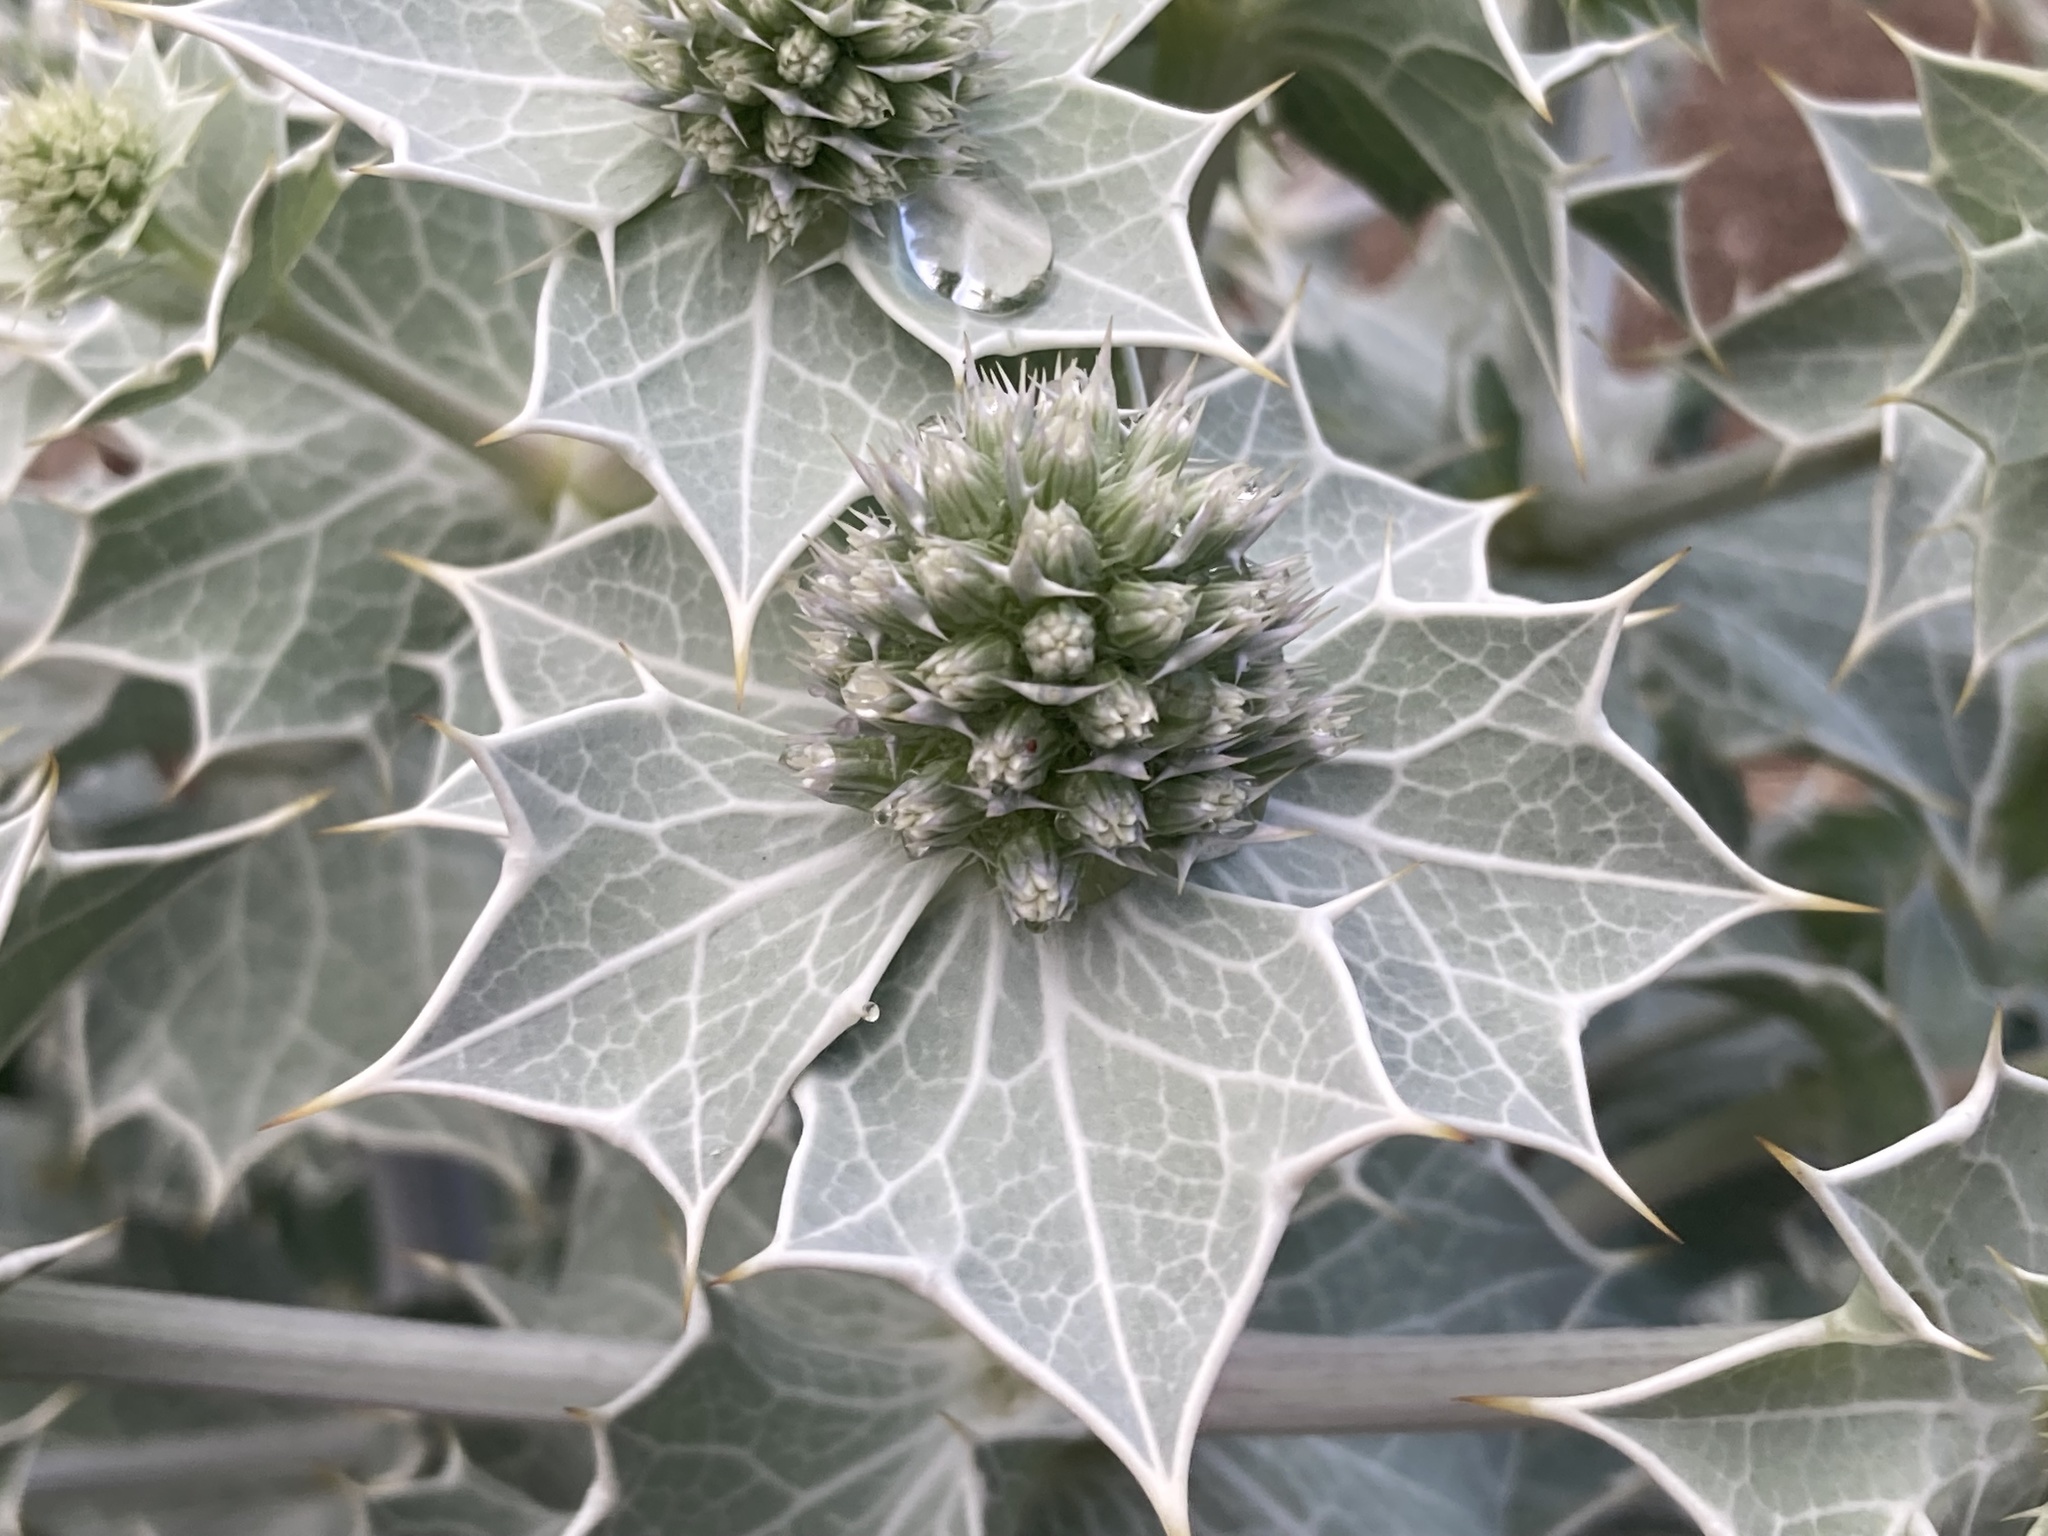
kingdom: Plantae
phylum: Tracheophyta
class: Magnoliopsida
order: Apiales
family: Apiaceae
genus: Eryngium
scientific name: Eryngium maritimum
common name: Sea-holly
